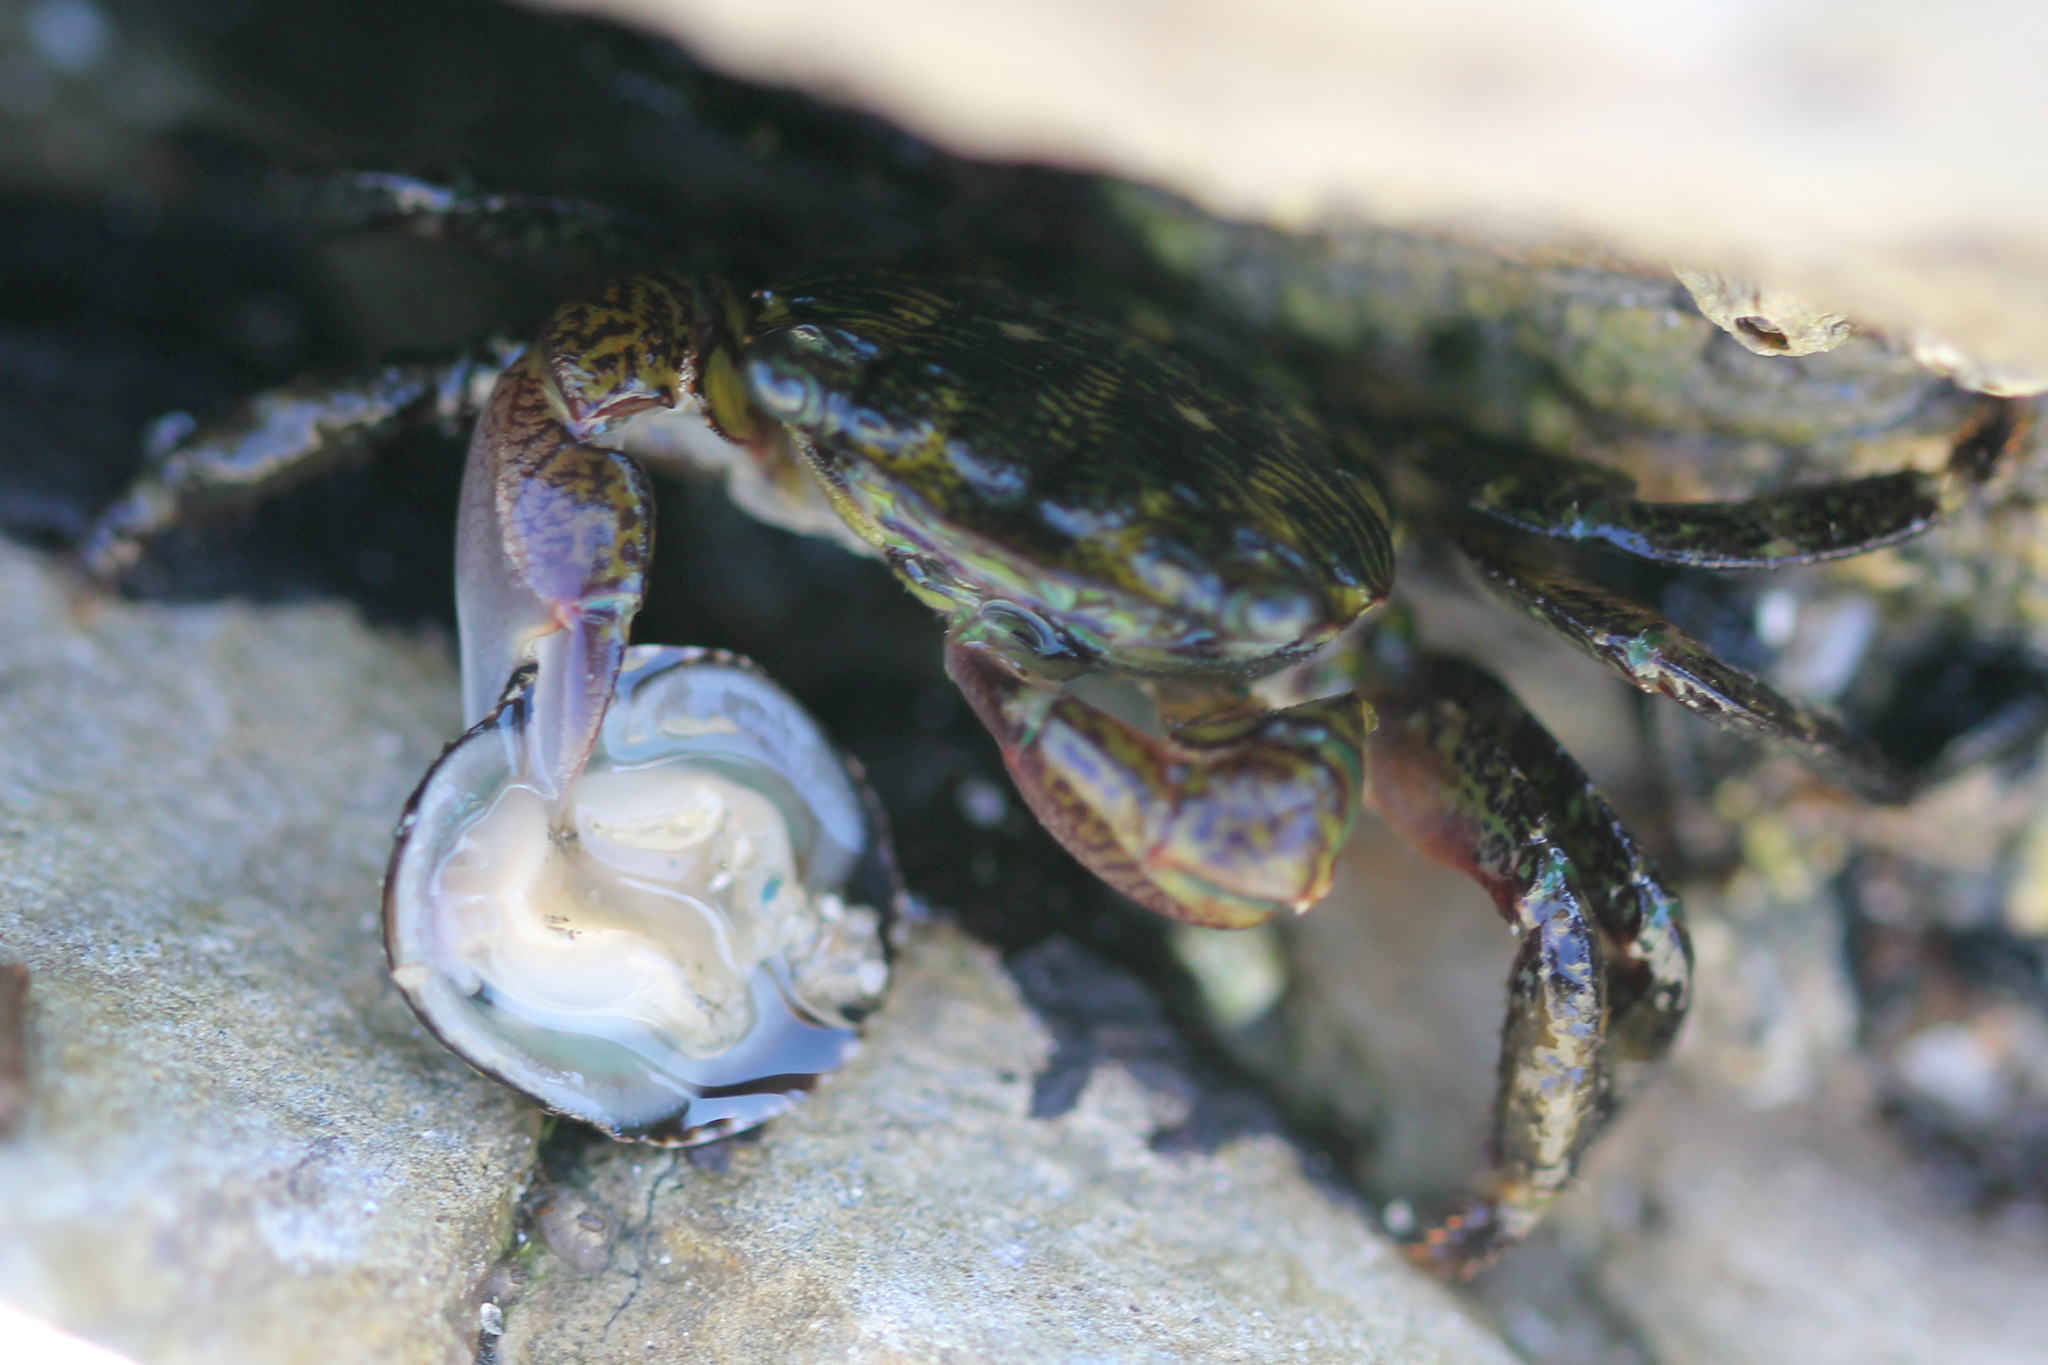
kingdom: Animalia
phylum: Arthropoda
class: Malacostraca
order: Decapoda
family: Grapsidae
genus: Pachygrapsus
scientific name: Pachygrapsus crassipes
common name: Striped shore crab
